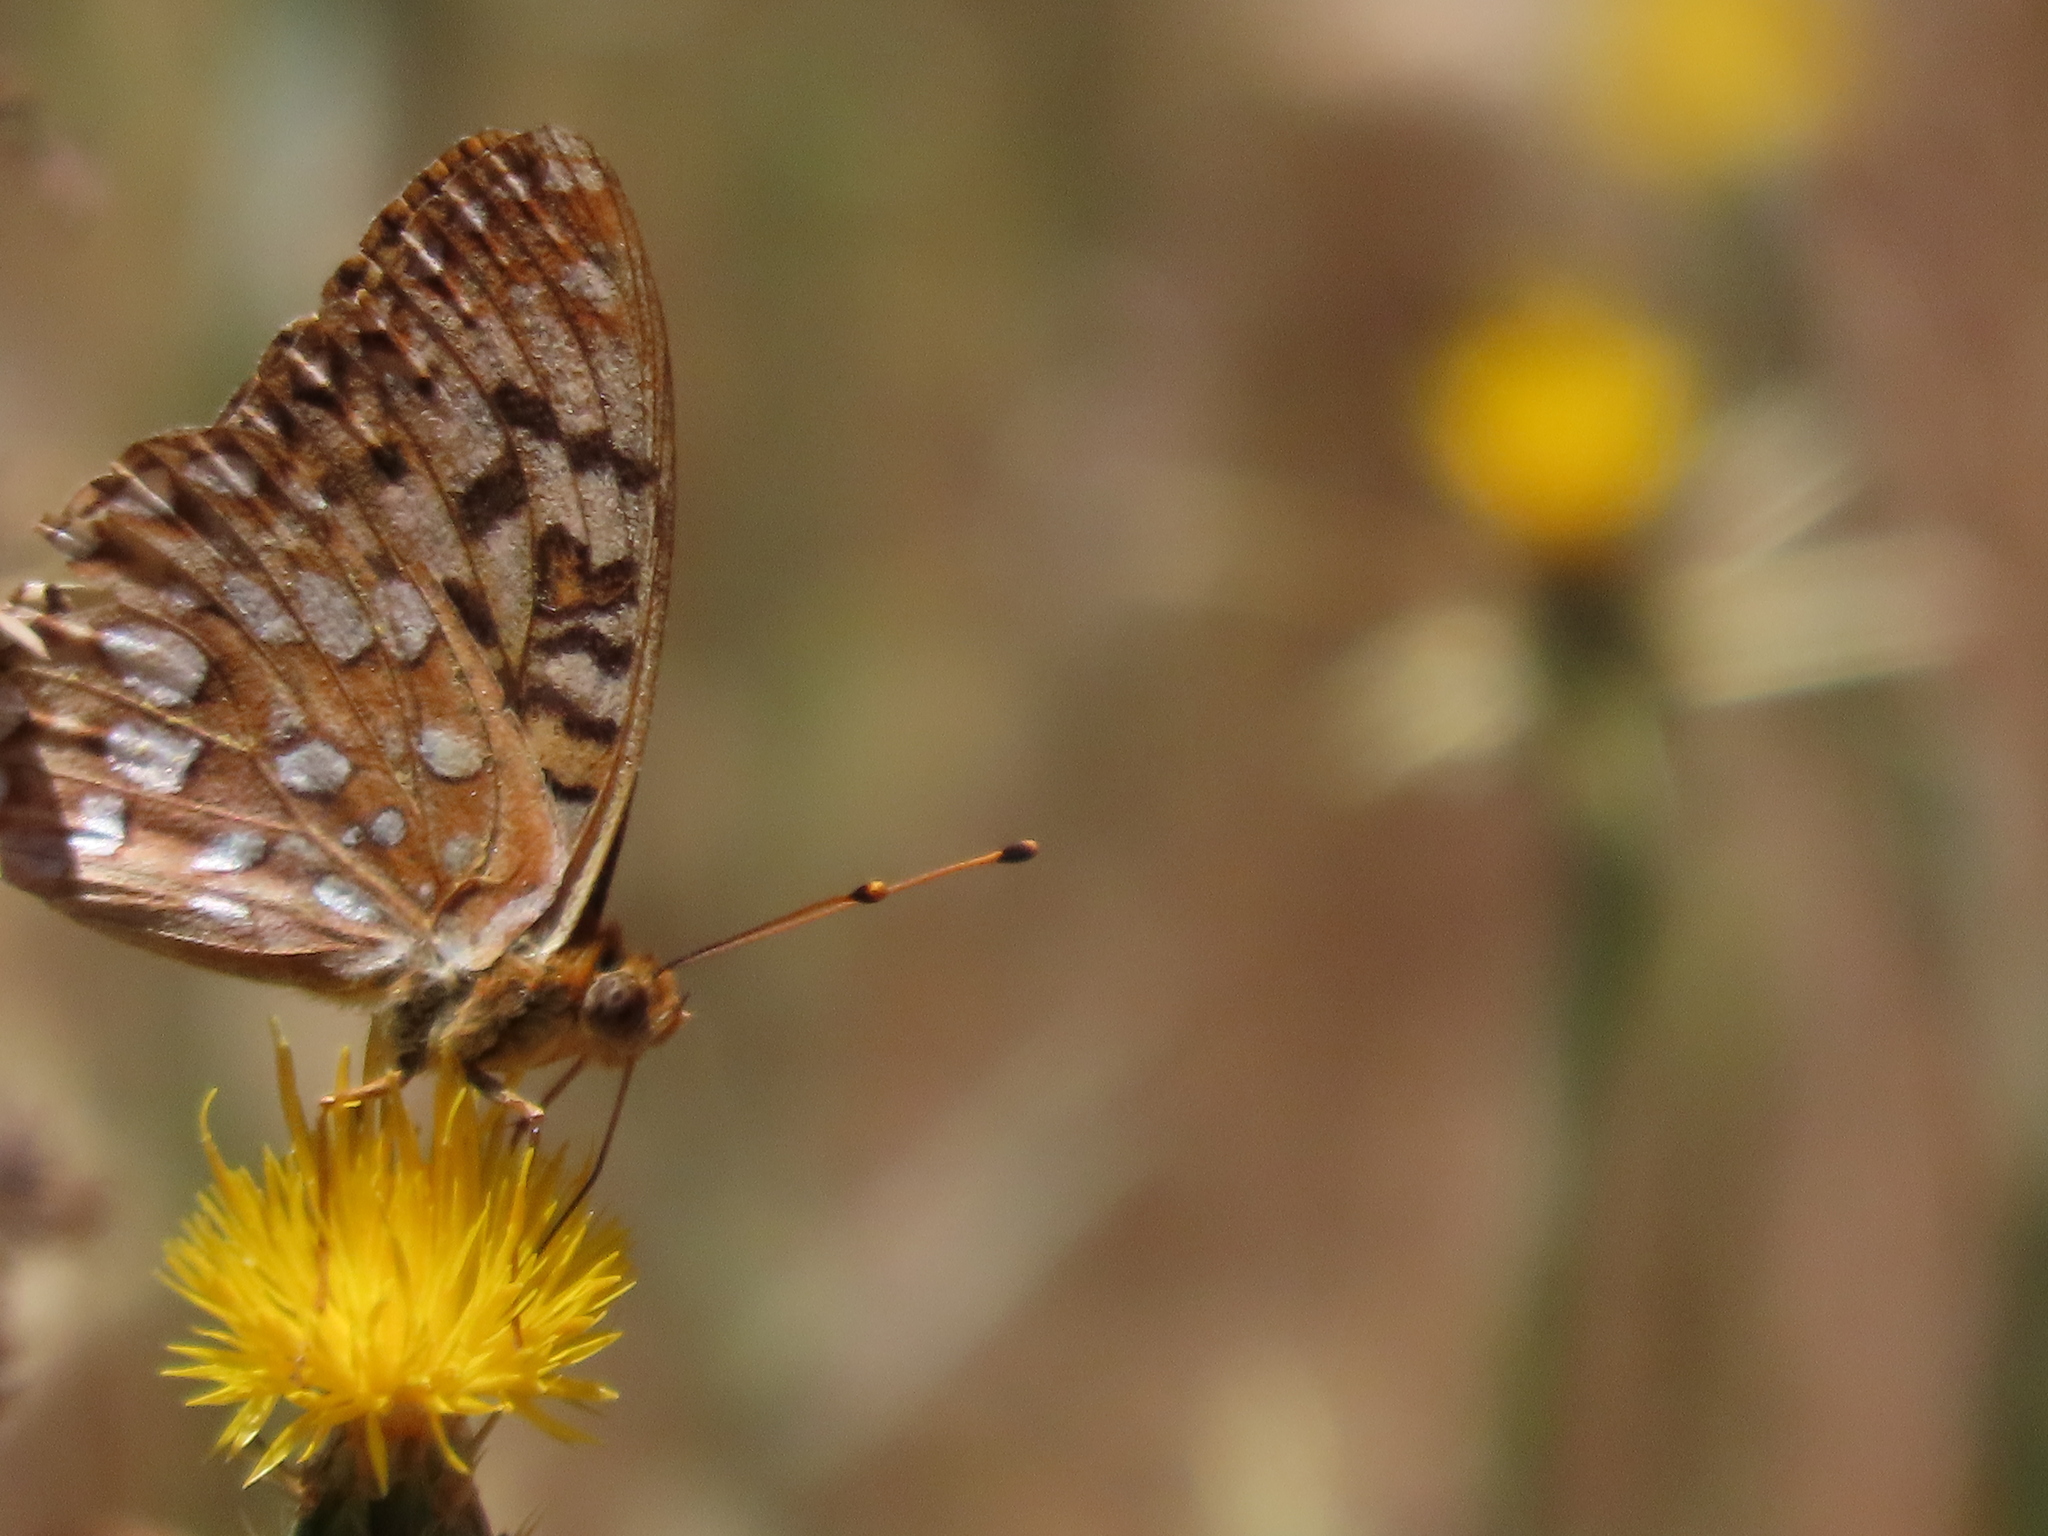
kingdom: Animalia
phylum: Arthropoda
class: Insecta
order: Lepidoptera
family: Nymphalidae
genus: Argynnis
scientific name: Argynnis coronis
